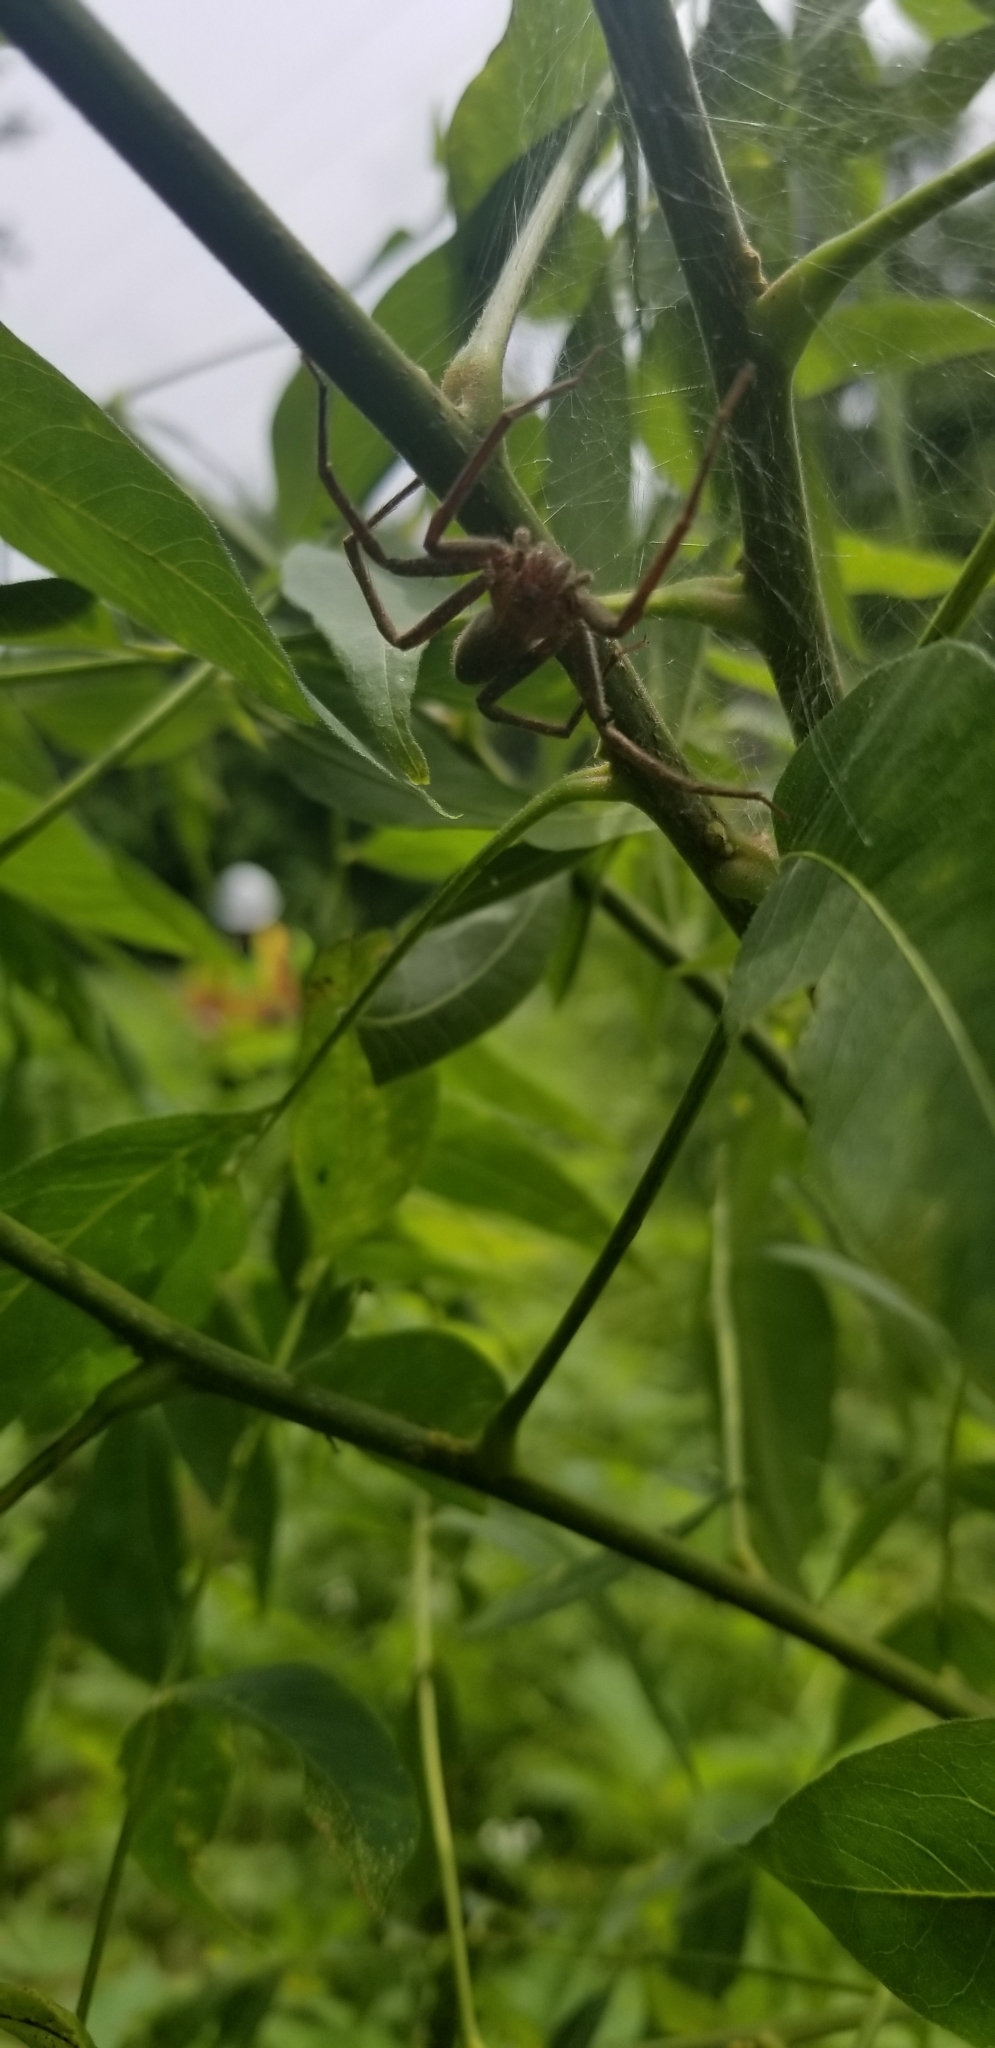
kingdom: Animalia
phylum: Arthropoda
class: Arachnida
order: Araneae
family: Pisauridae
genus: Pisaurina
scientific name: Pisaurina mira
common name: American nursery web spider
